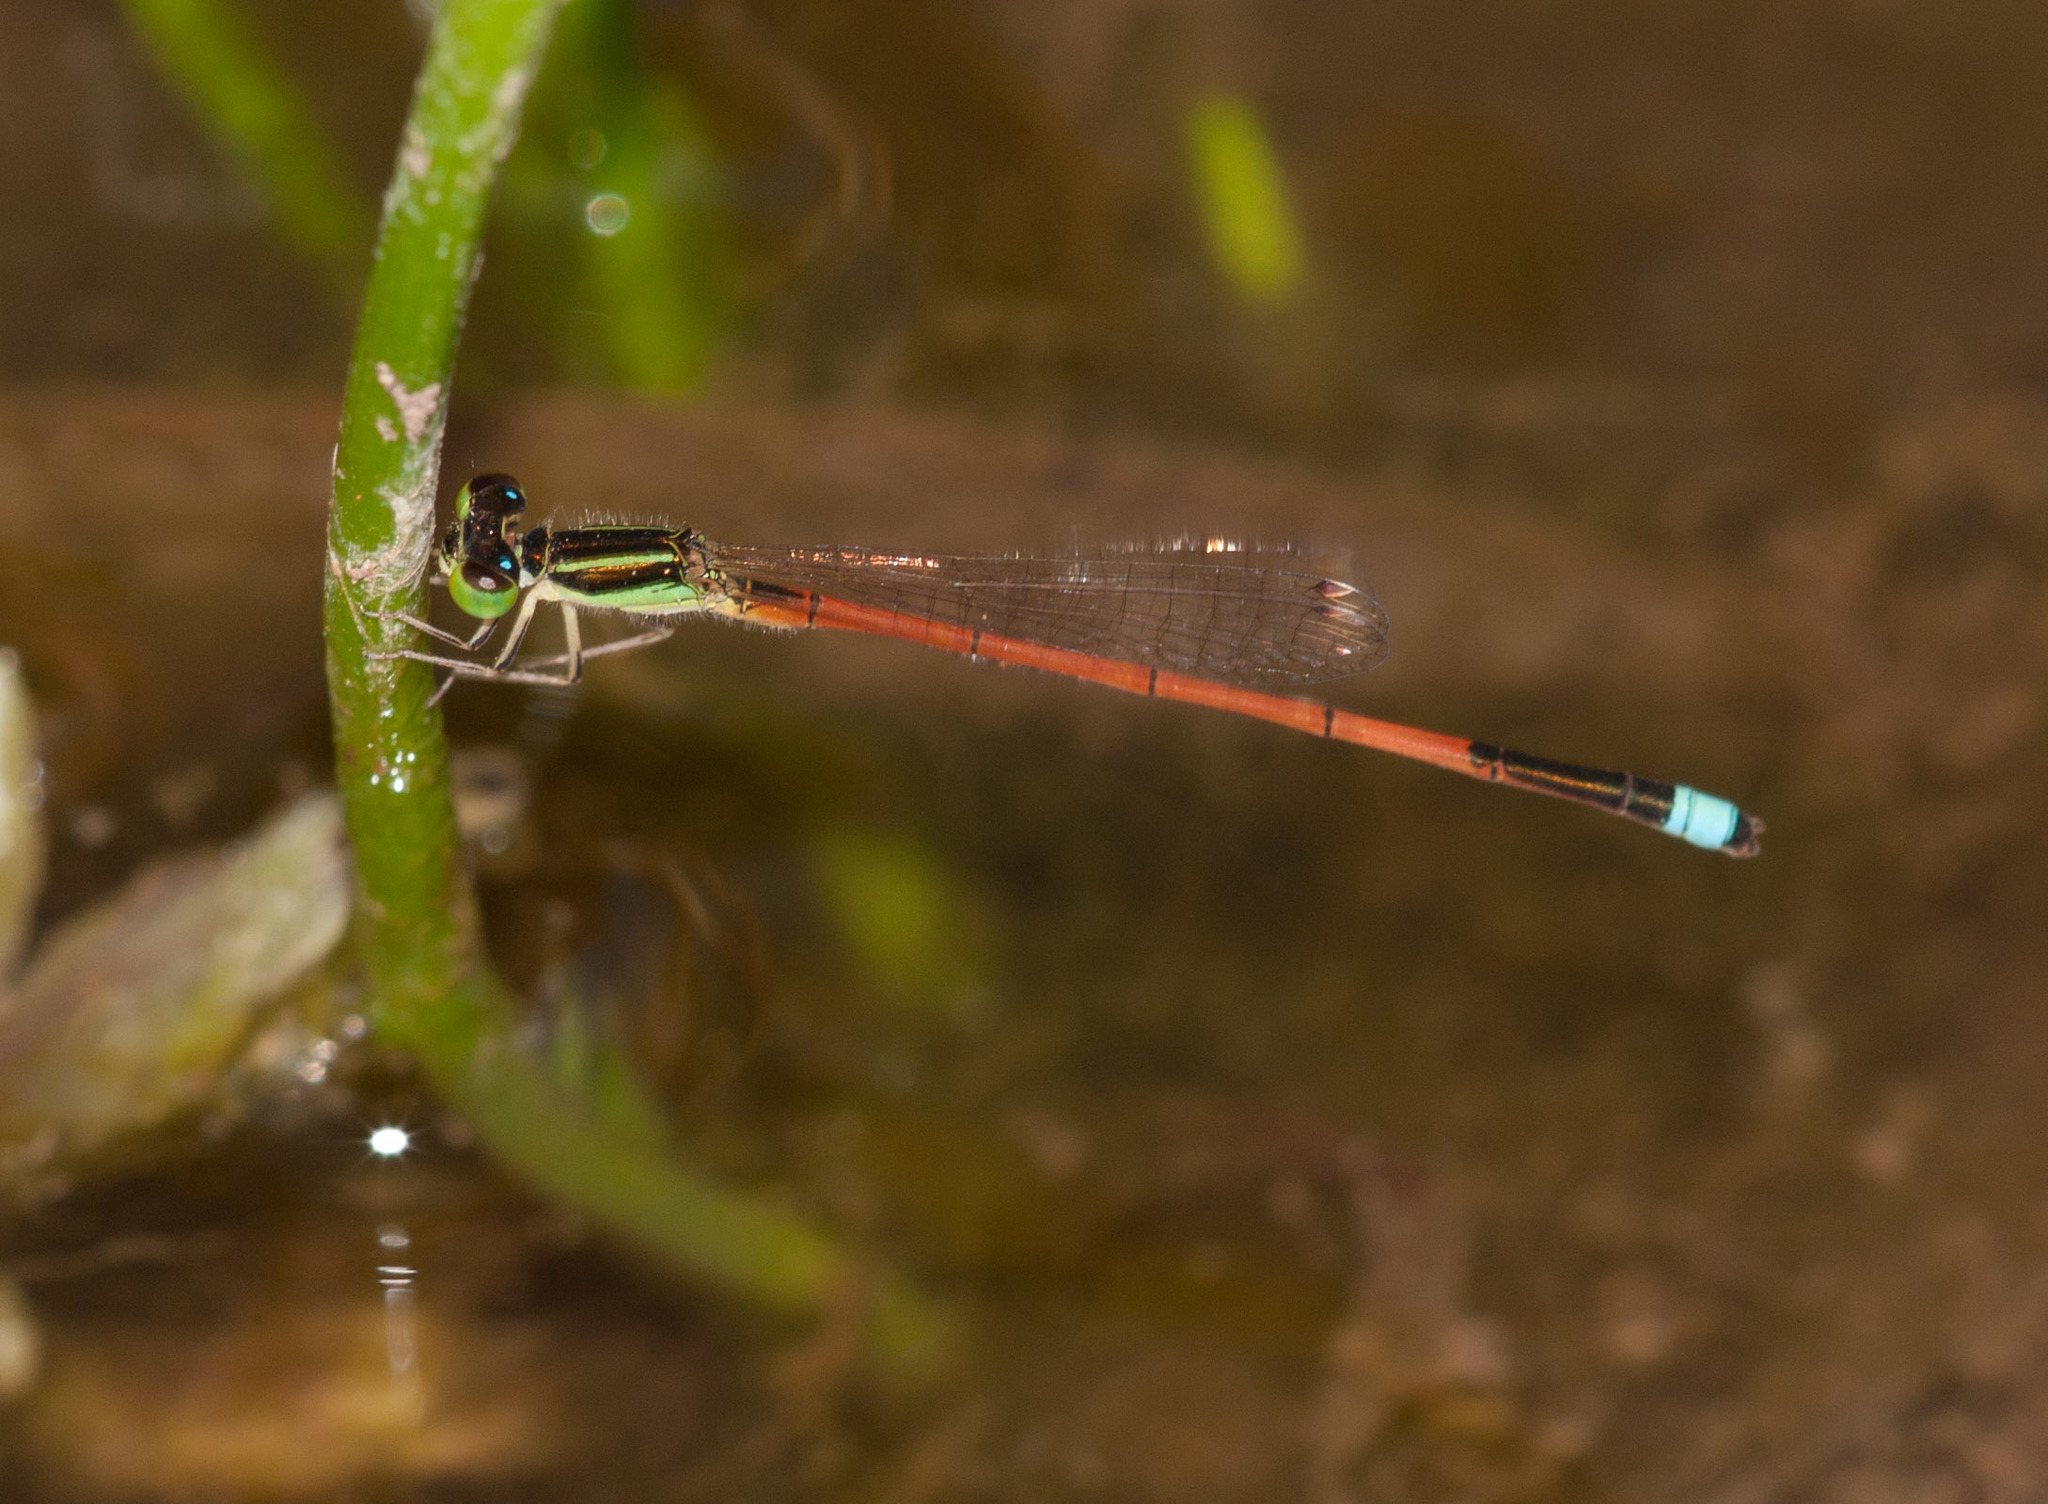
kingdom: Animalia
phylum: Arthropoda
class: Insecta
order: Odonata
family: Coenagrionidae
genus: Ischnura
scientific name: Ischnura aurora
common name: Gossamer damselfly
